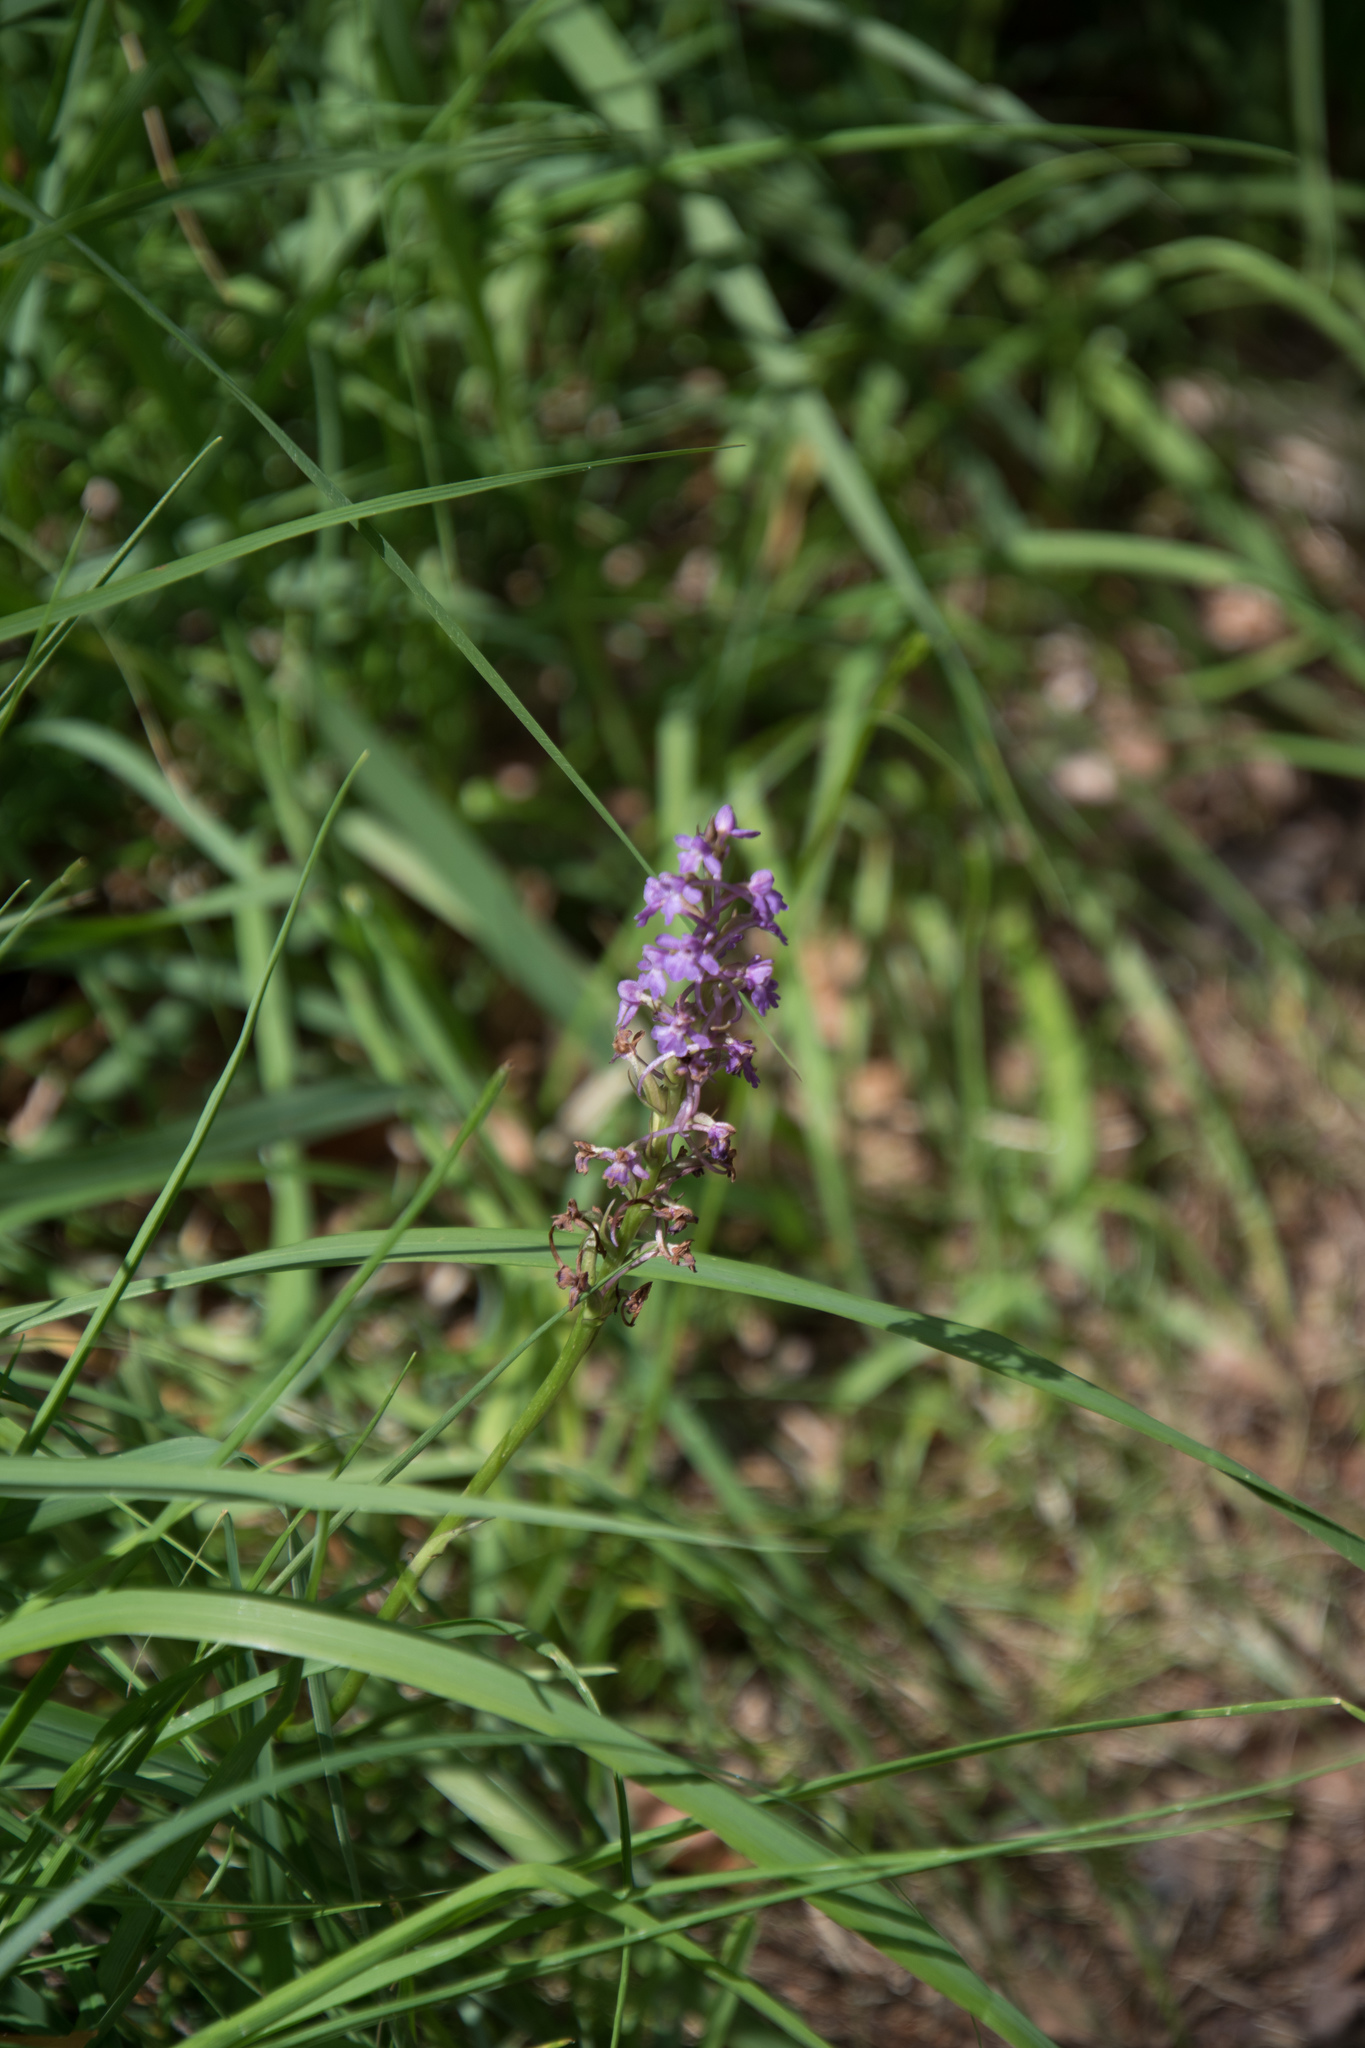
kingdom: Plantae
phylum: Tracheophyta
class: Liliopsida
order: Asparagales
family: Orchidaceae
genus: Gymnadenia
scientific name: Gymnadenia conopsea
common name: Fragrant orchid
